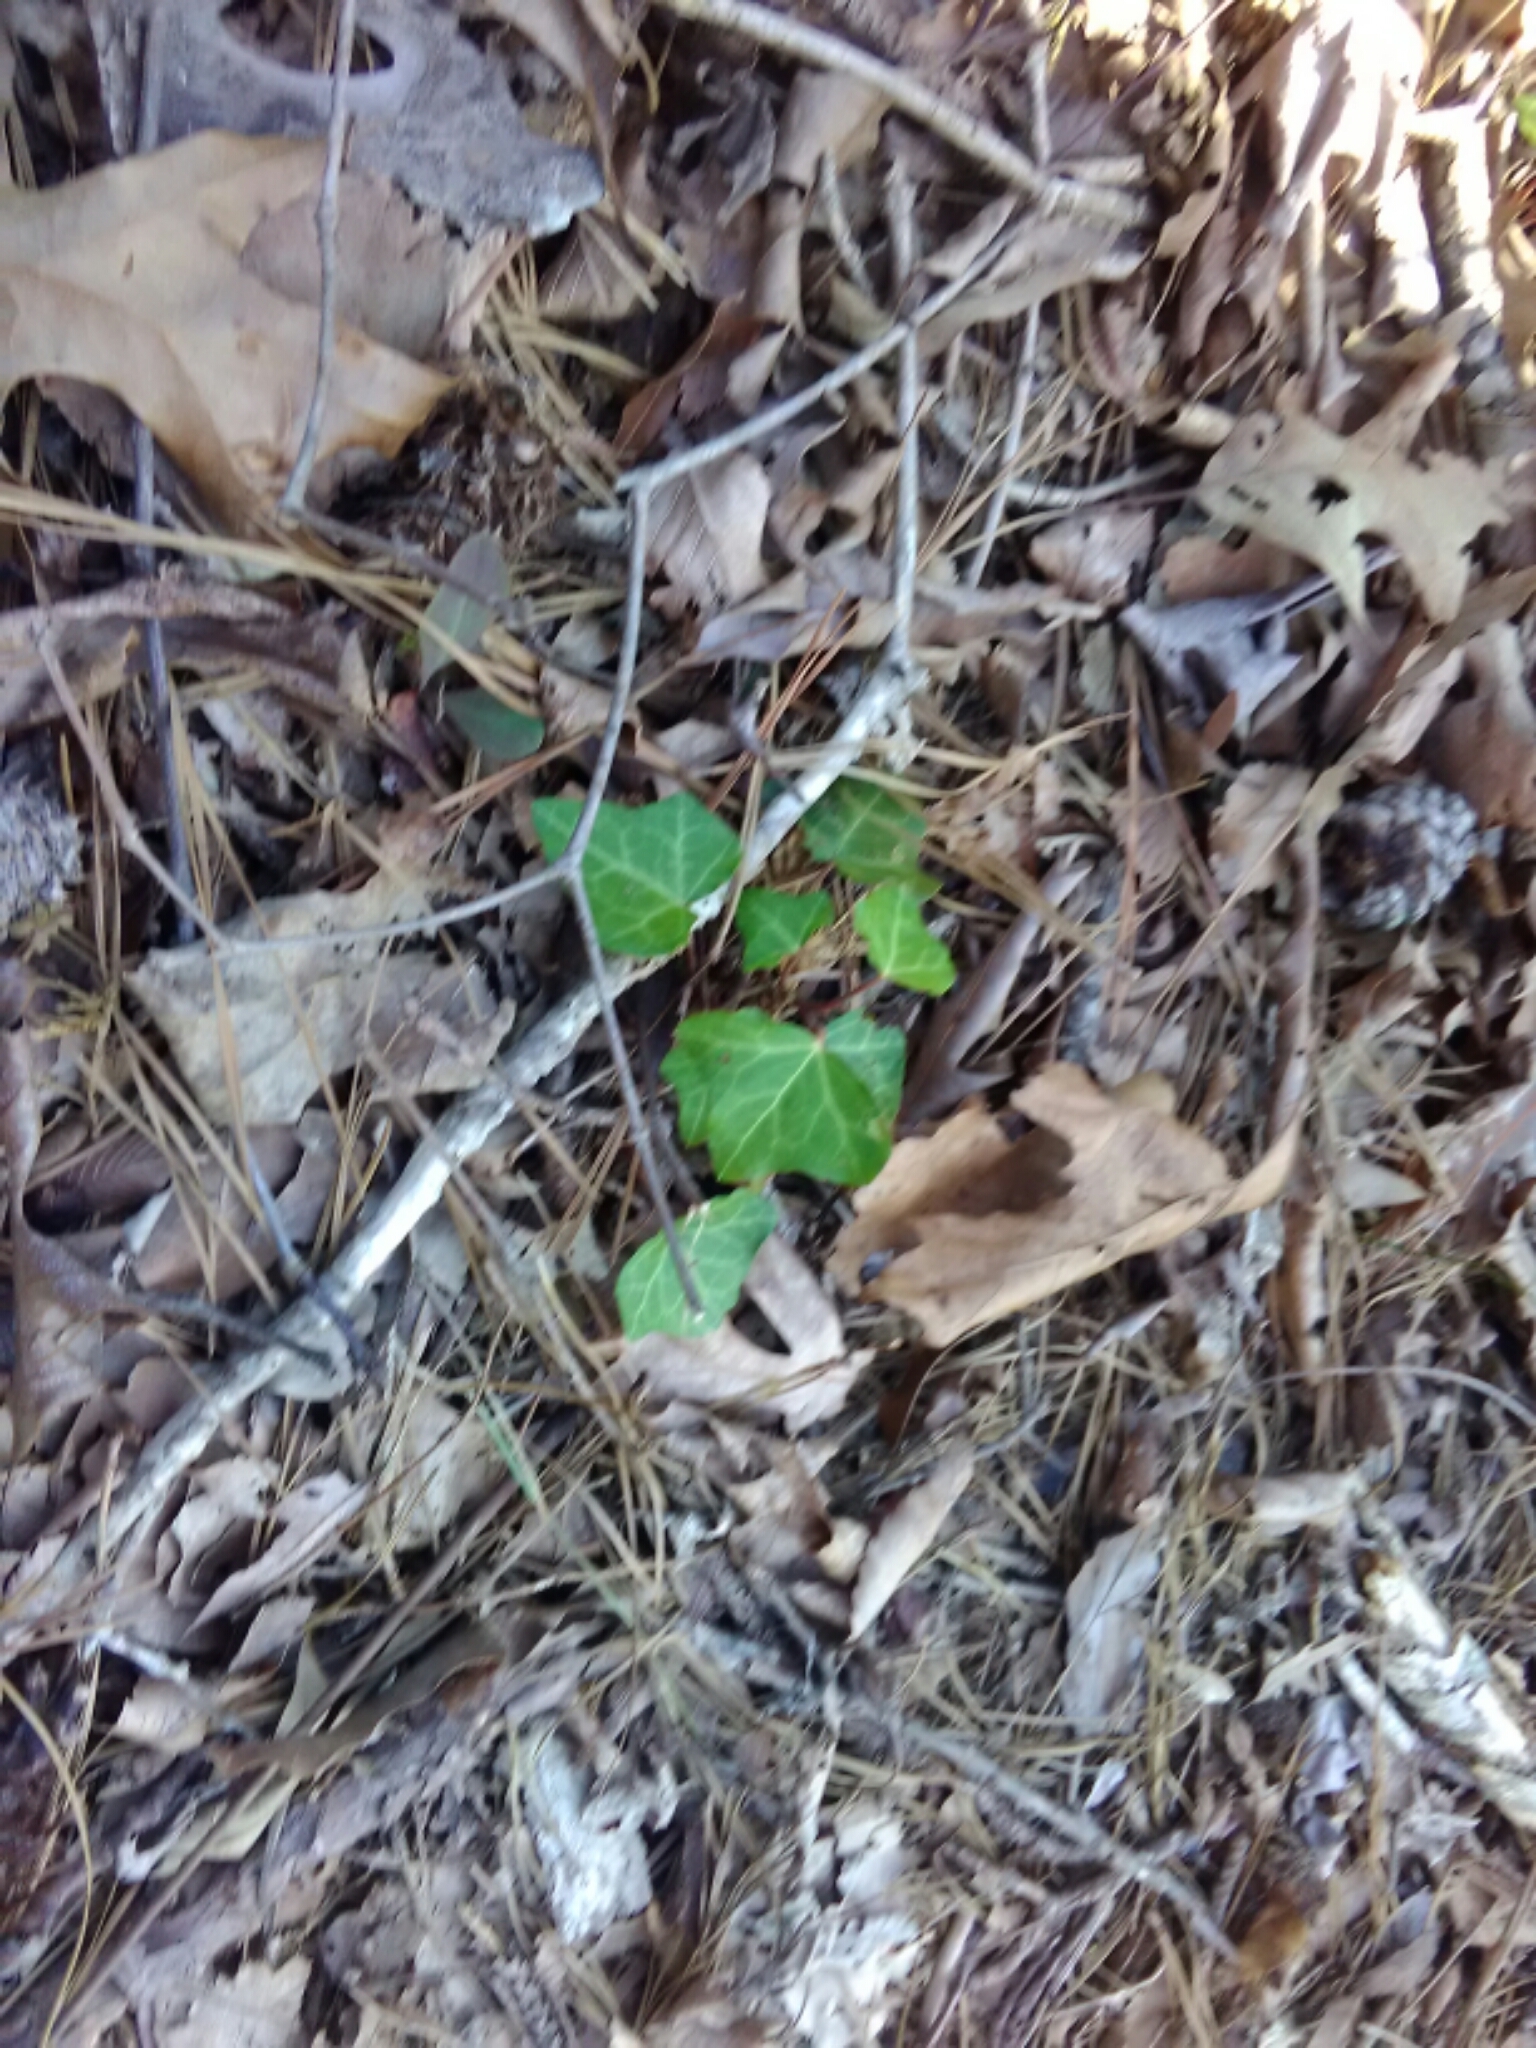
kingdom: Plantae
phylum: Tracheophyta
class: Magnoliopsida
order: Apiales
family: Araliaceae
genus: Hedera
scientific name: Hedera helix
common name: Ivy
